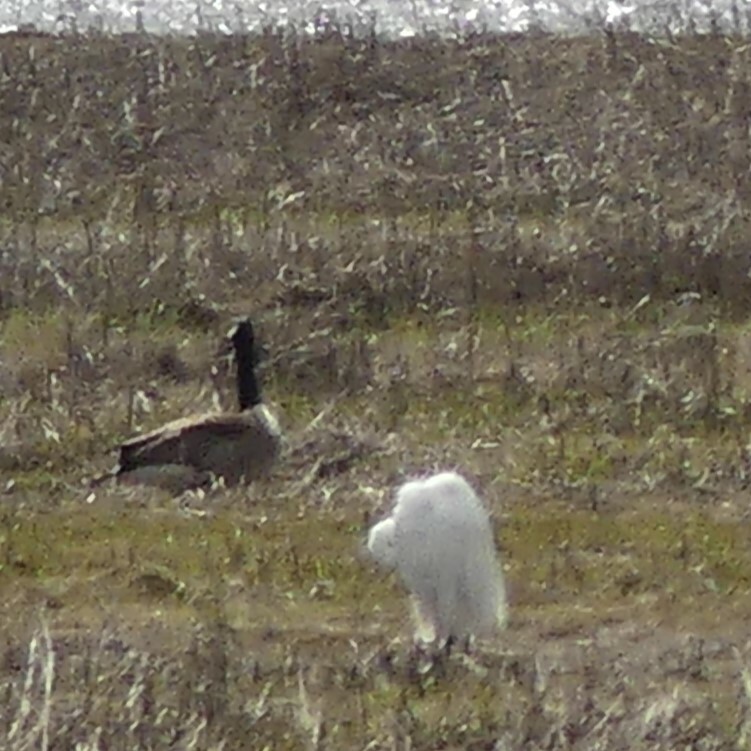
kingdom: Animalia
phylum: Chordata
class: Aves
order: Pelecaniformes
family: Ardeidae
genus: Ardea
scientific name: Ardea alba
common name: Great egret
